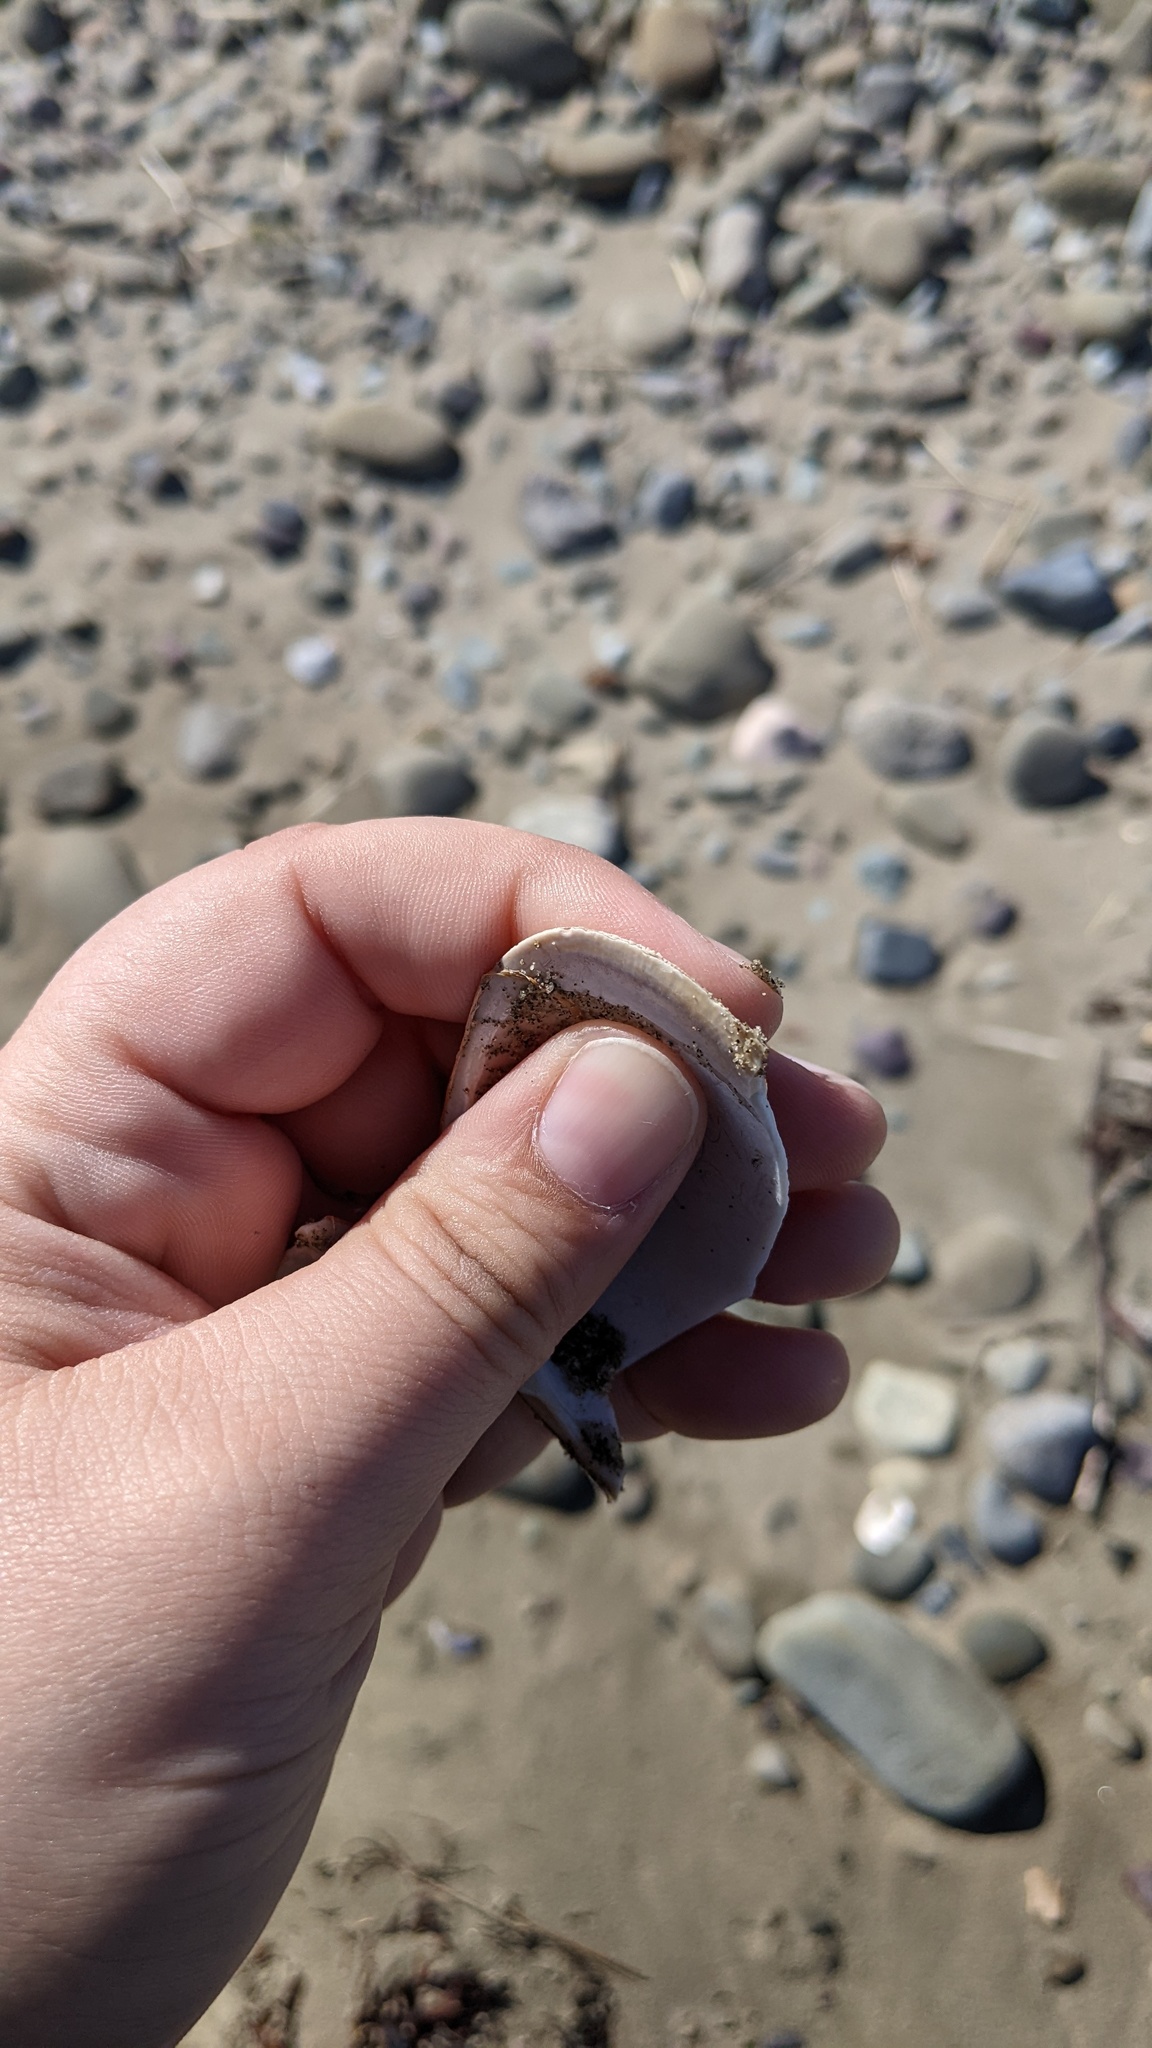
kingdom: Animalia
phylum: Mollusca
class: Bivalvia
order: Venerida
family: Mactridae
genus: Spisula
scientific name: Spisula solidissima
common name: Atlantic surf clam
